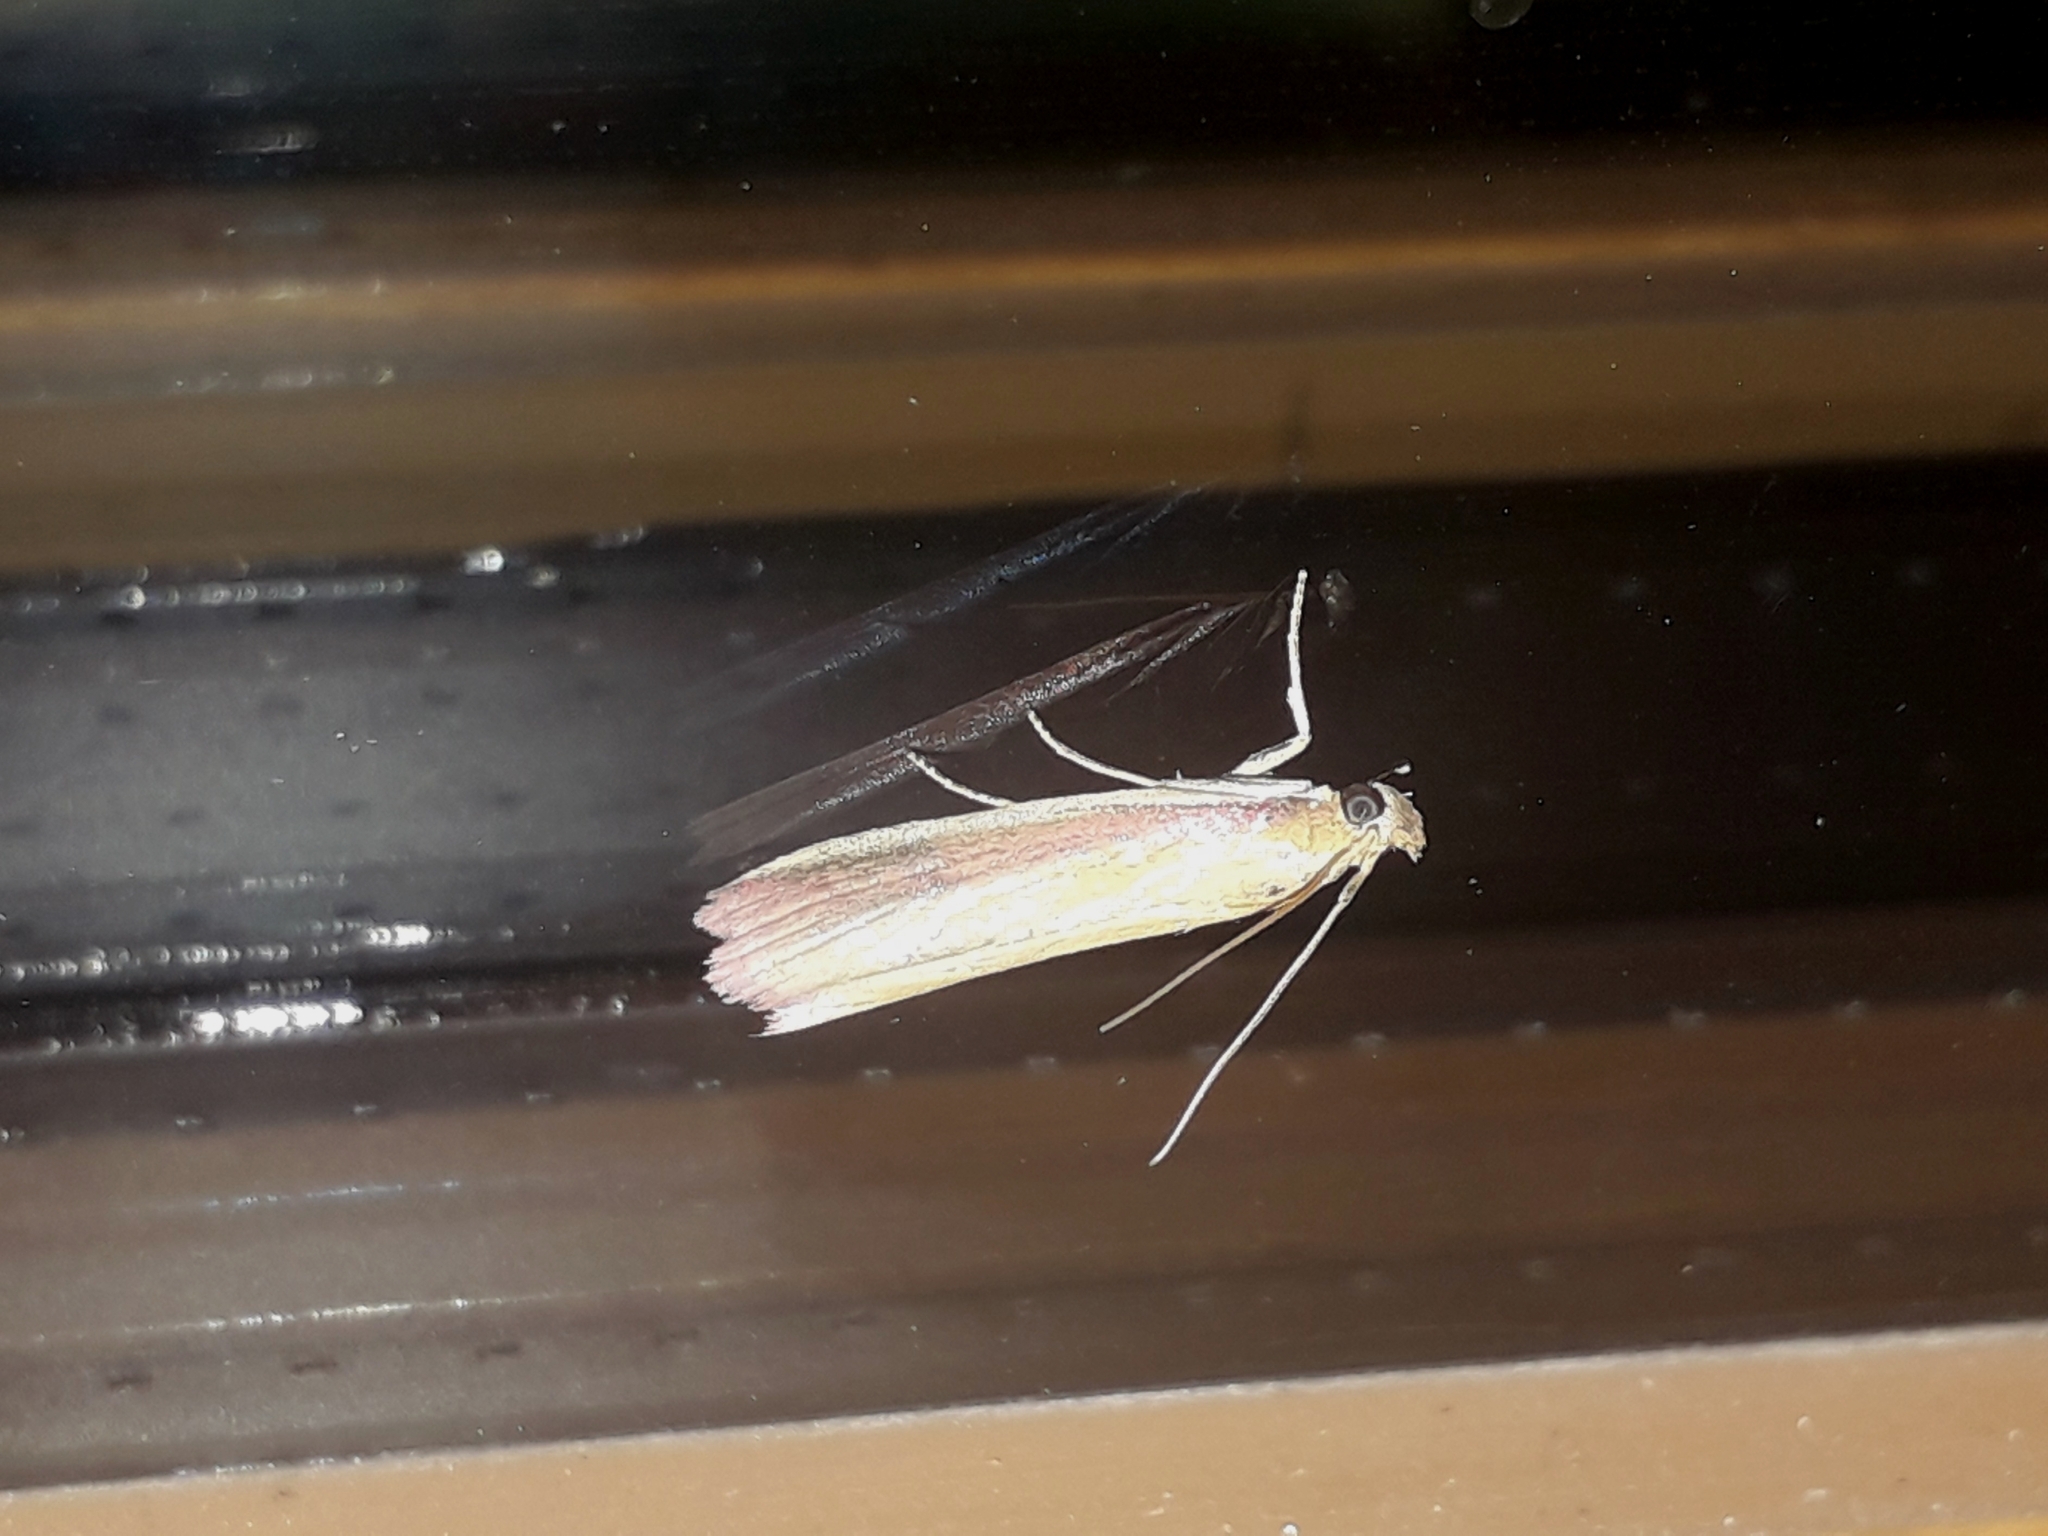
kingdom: Animalia
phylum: Arthropoda
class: Insecta
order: Lepidoptera
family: Pyralidae
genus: Oncocera
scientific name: Oncocera semirubella
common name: Rosy-striped knot-horn
